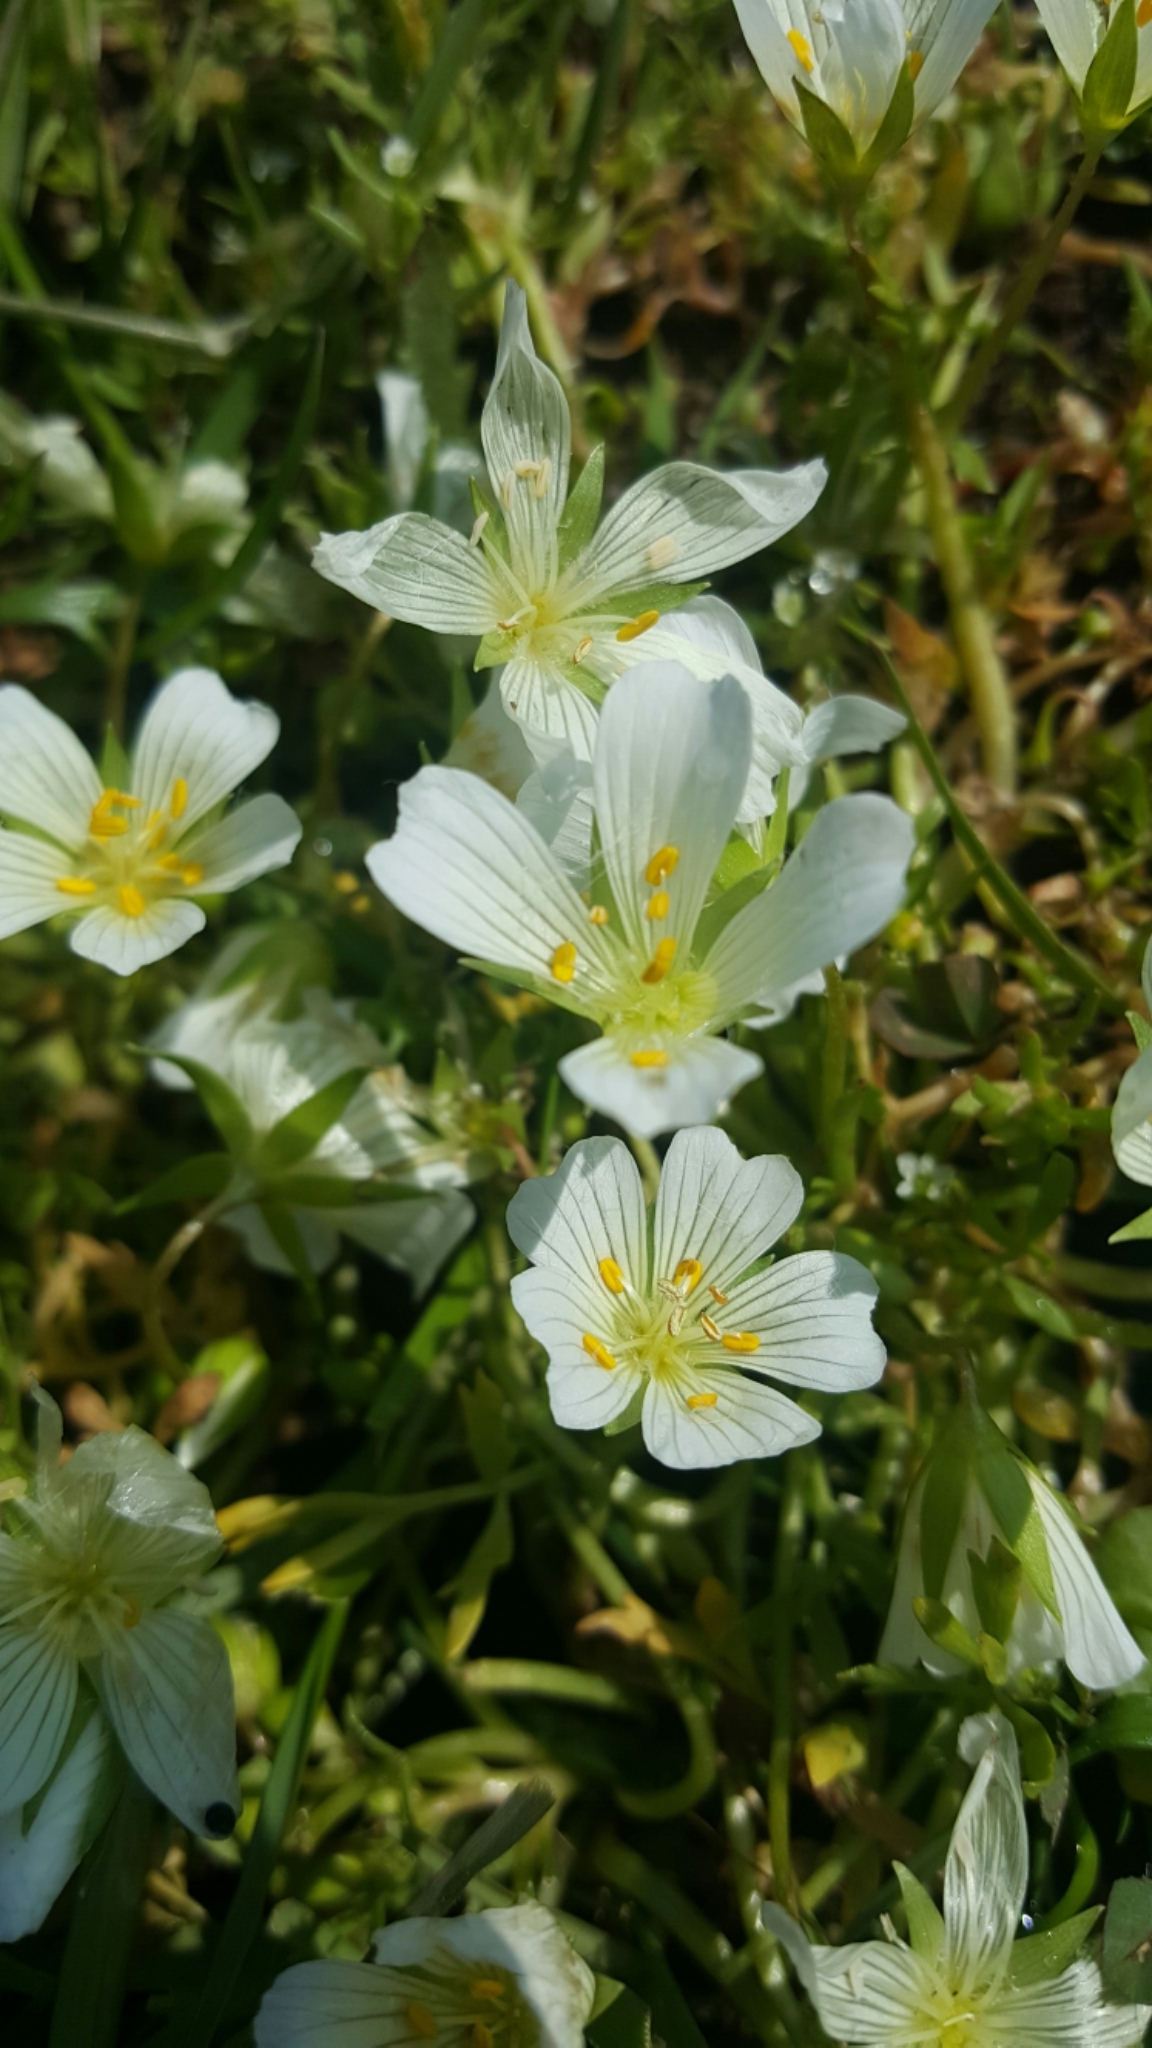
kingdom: Plantae
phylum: Tracheophyta
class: Magnoliopsida
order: Brassicales
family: Limnanthaceae
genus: Limnanthes
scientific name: Limnanthes douglasii
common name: Meadow-foam
